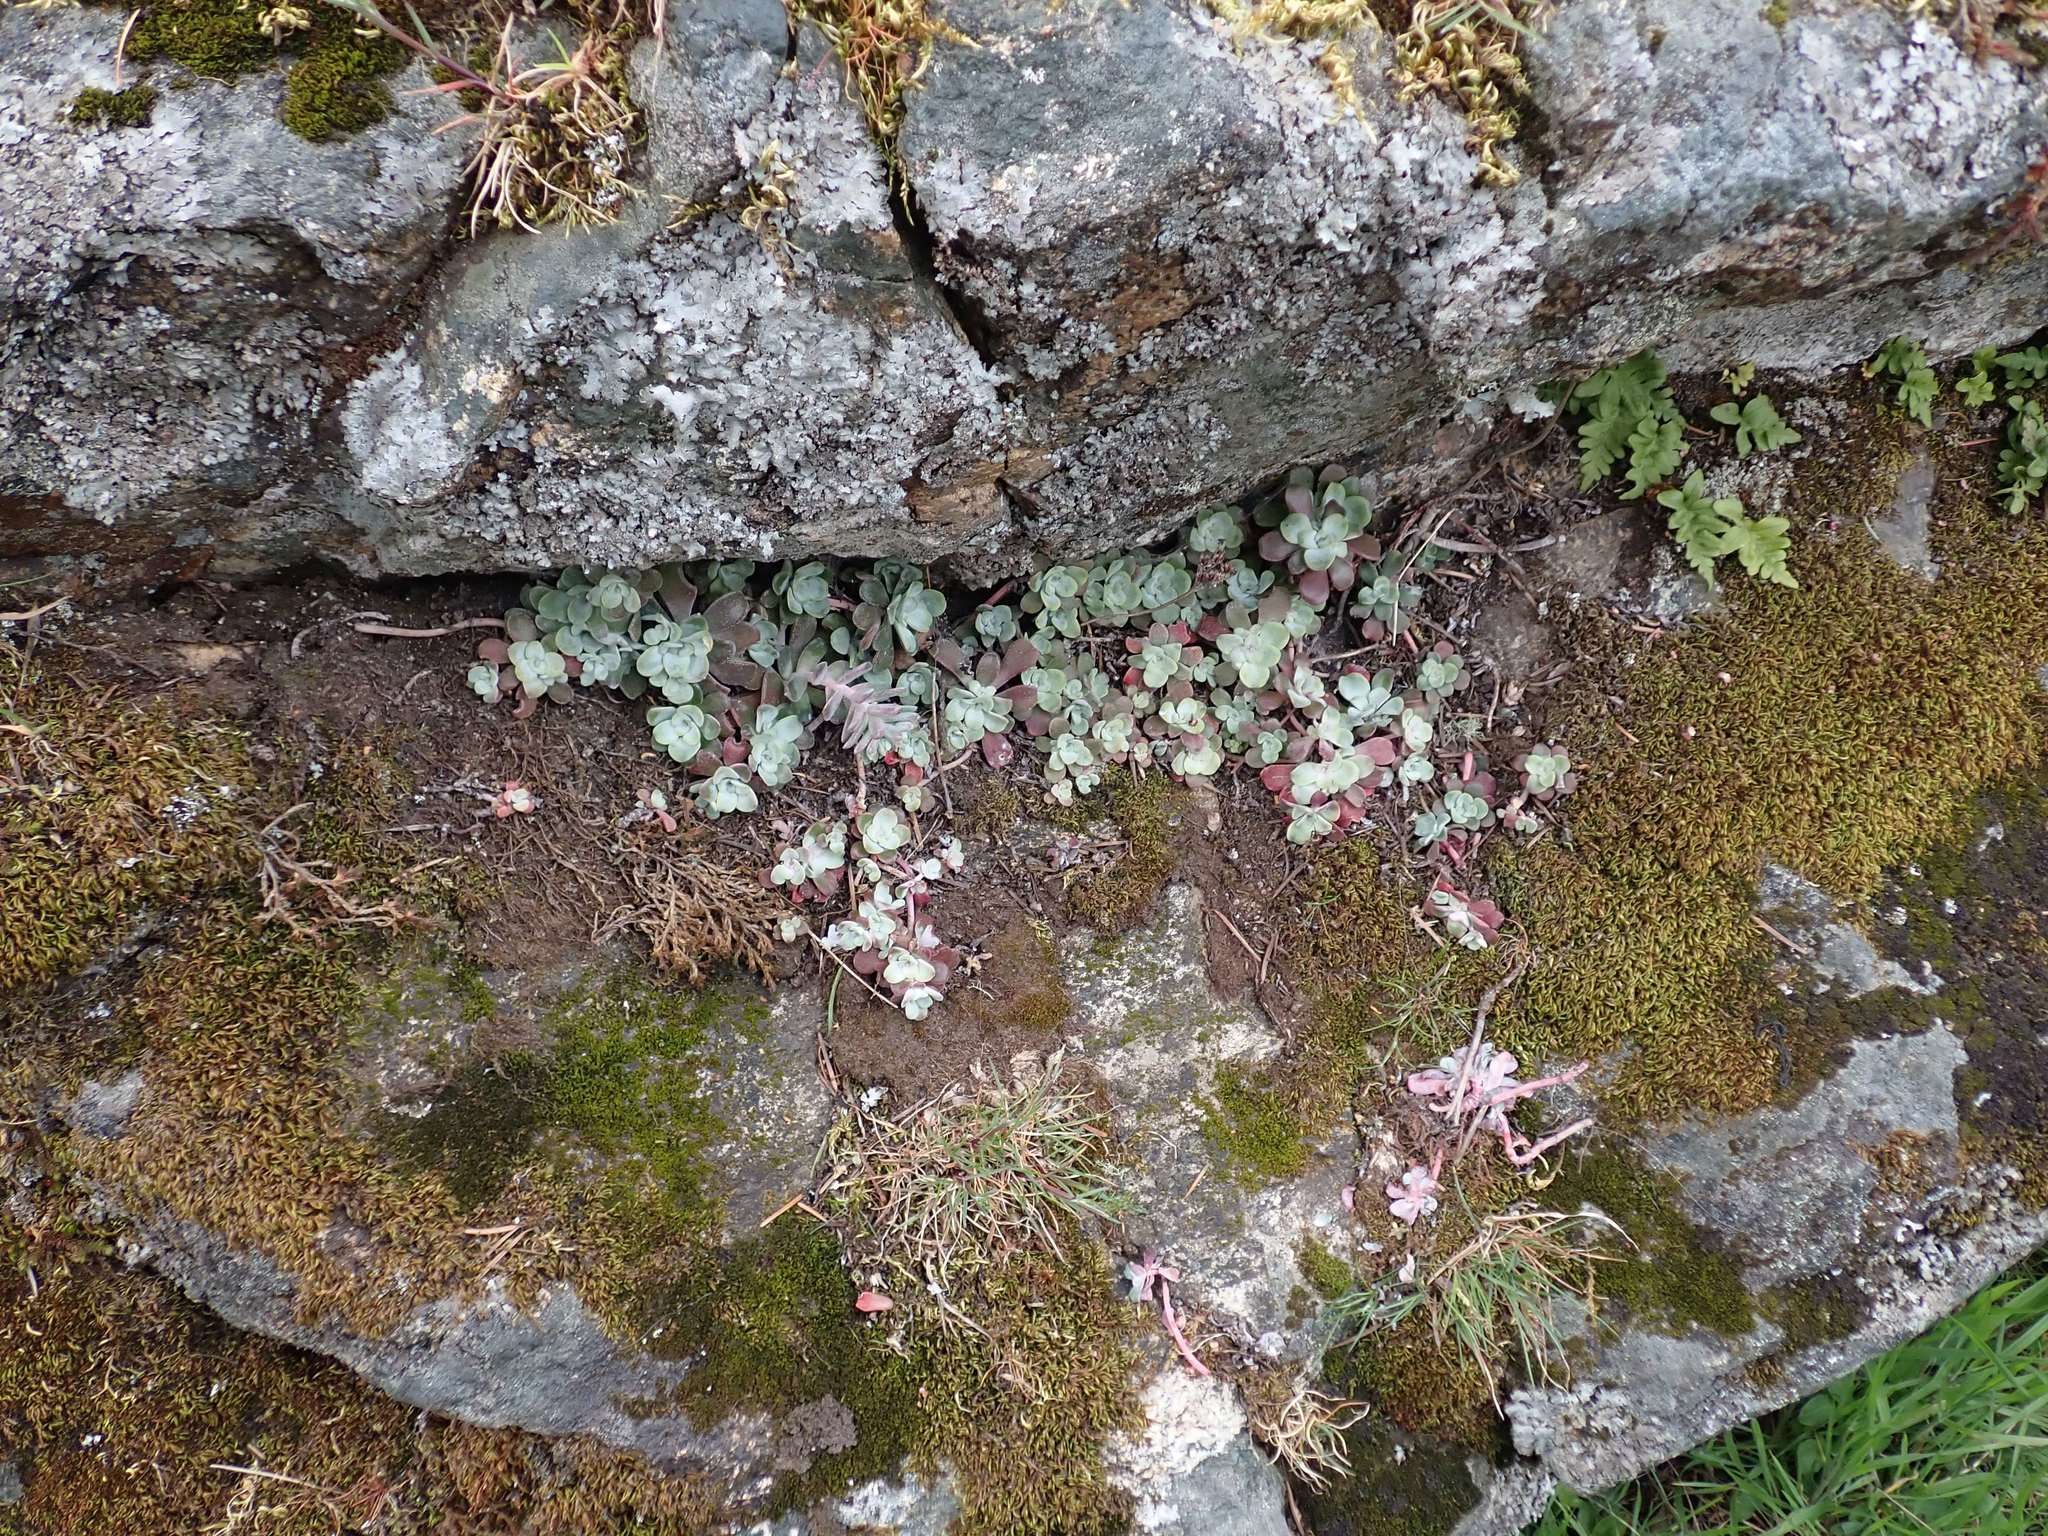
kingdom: Plantae
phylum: Tracheophyta
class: Magnoliopsida
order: Saxifragales
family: Crassulaceae
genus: Sedum
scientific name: Sedum spathulifolium
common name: Colorado stonecrop
